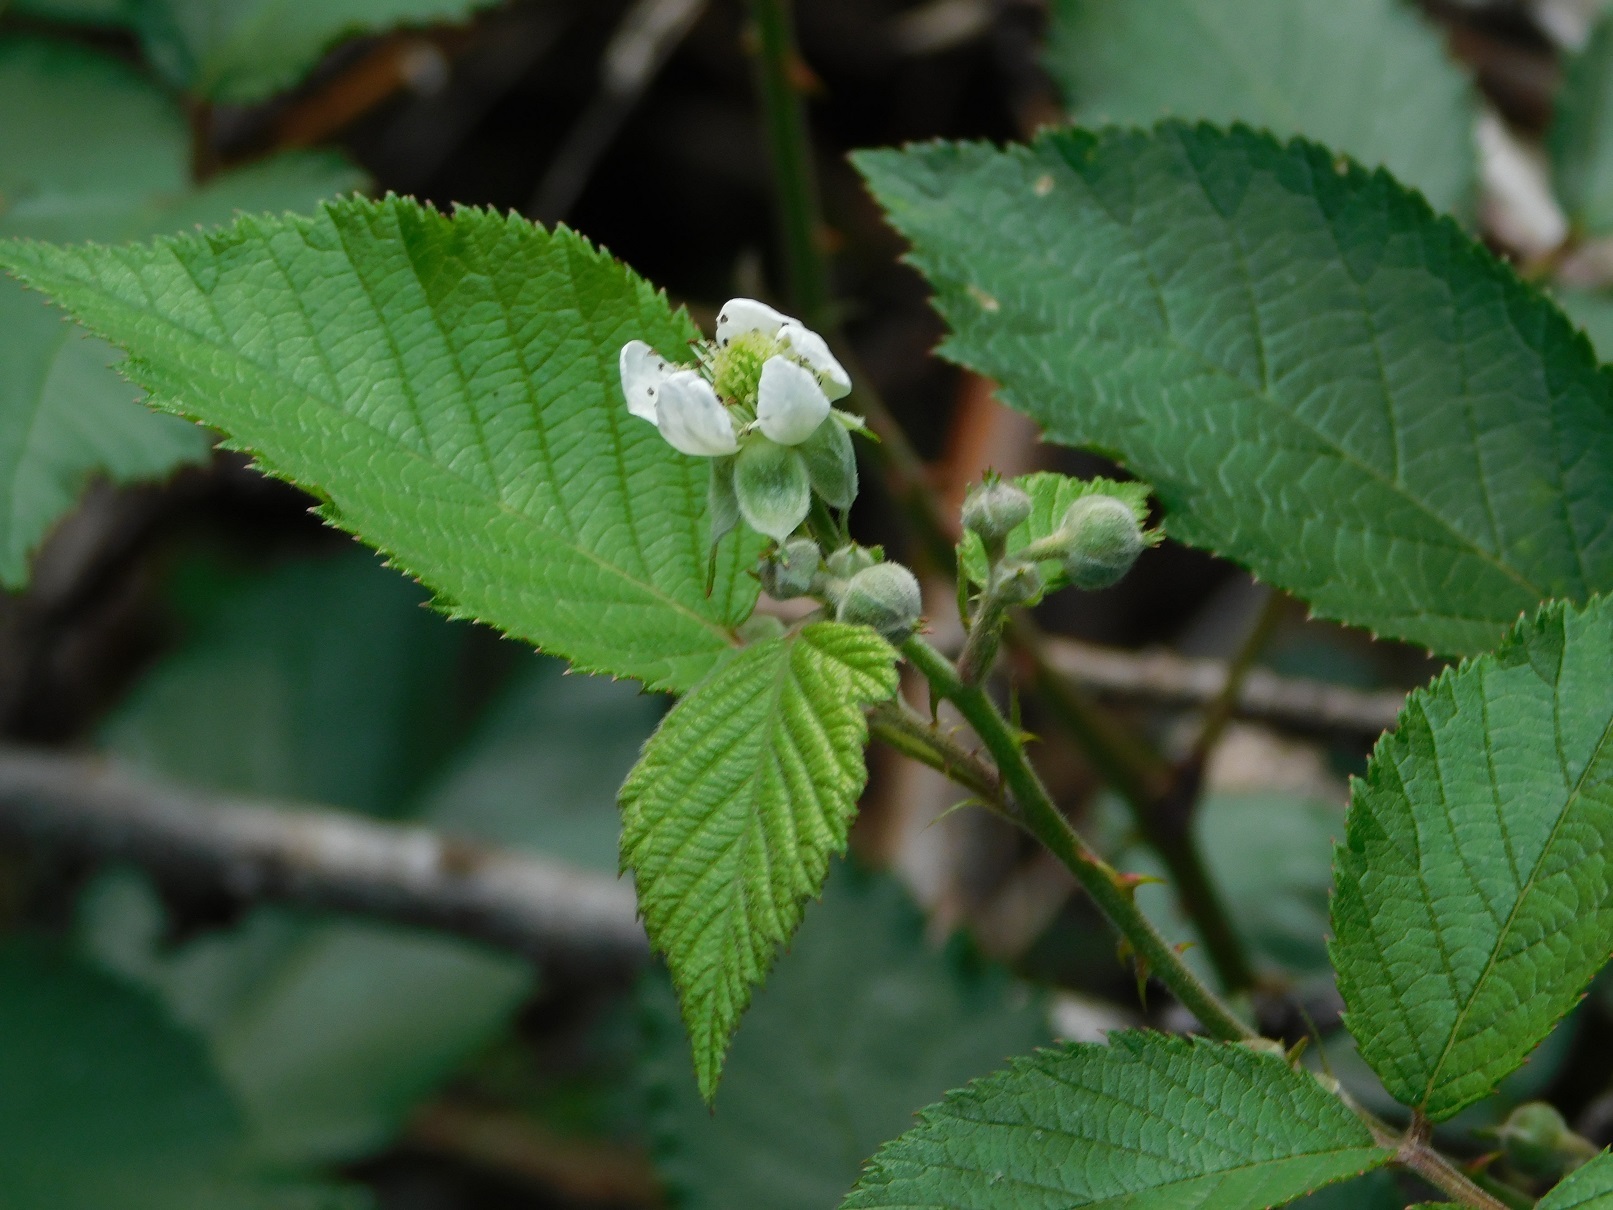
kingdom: Plantae
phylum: Tracheophyta
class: Magnoliopsida
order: Rosales
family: Rosaceae
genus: Rubus
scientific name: Rubus pringlei
